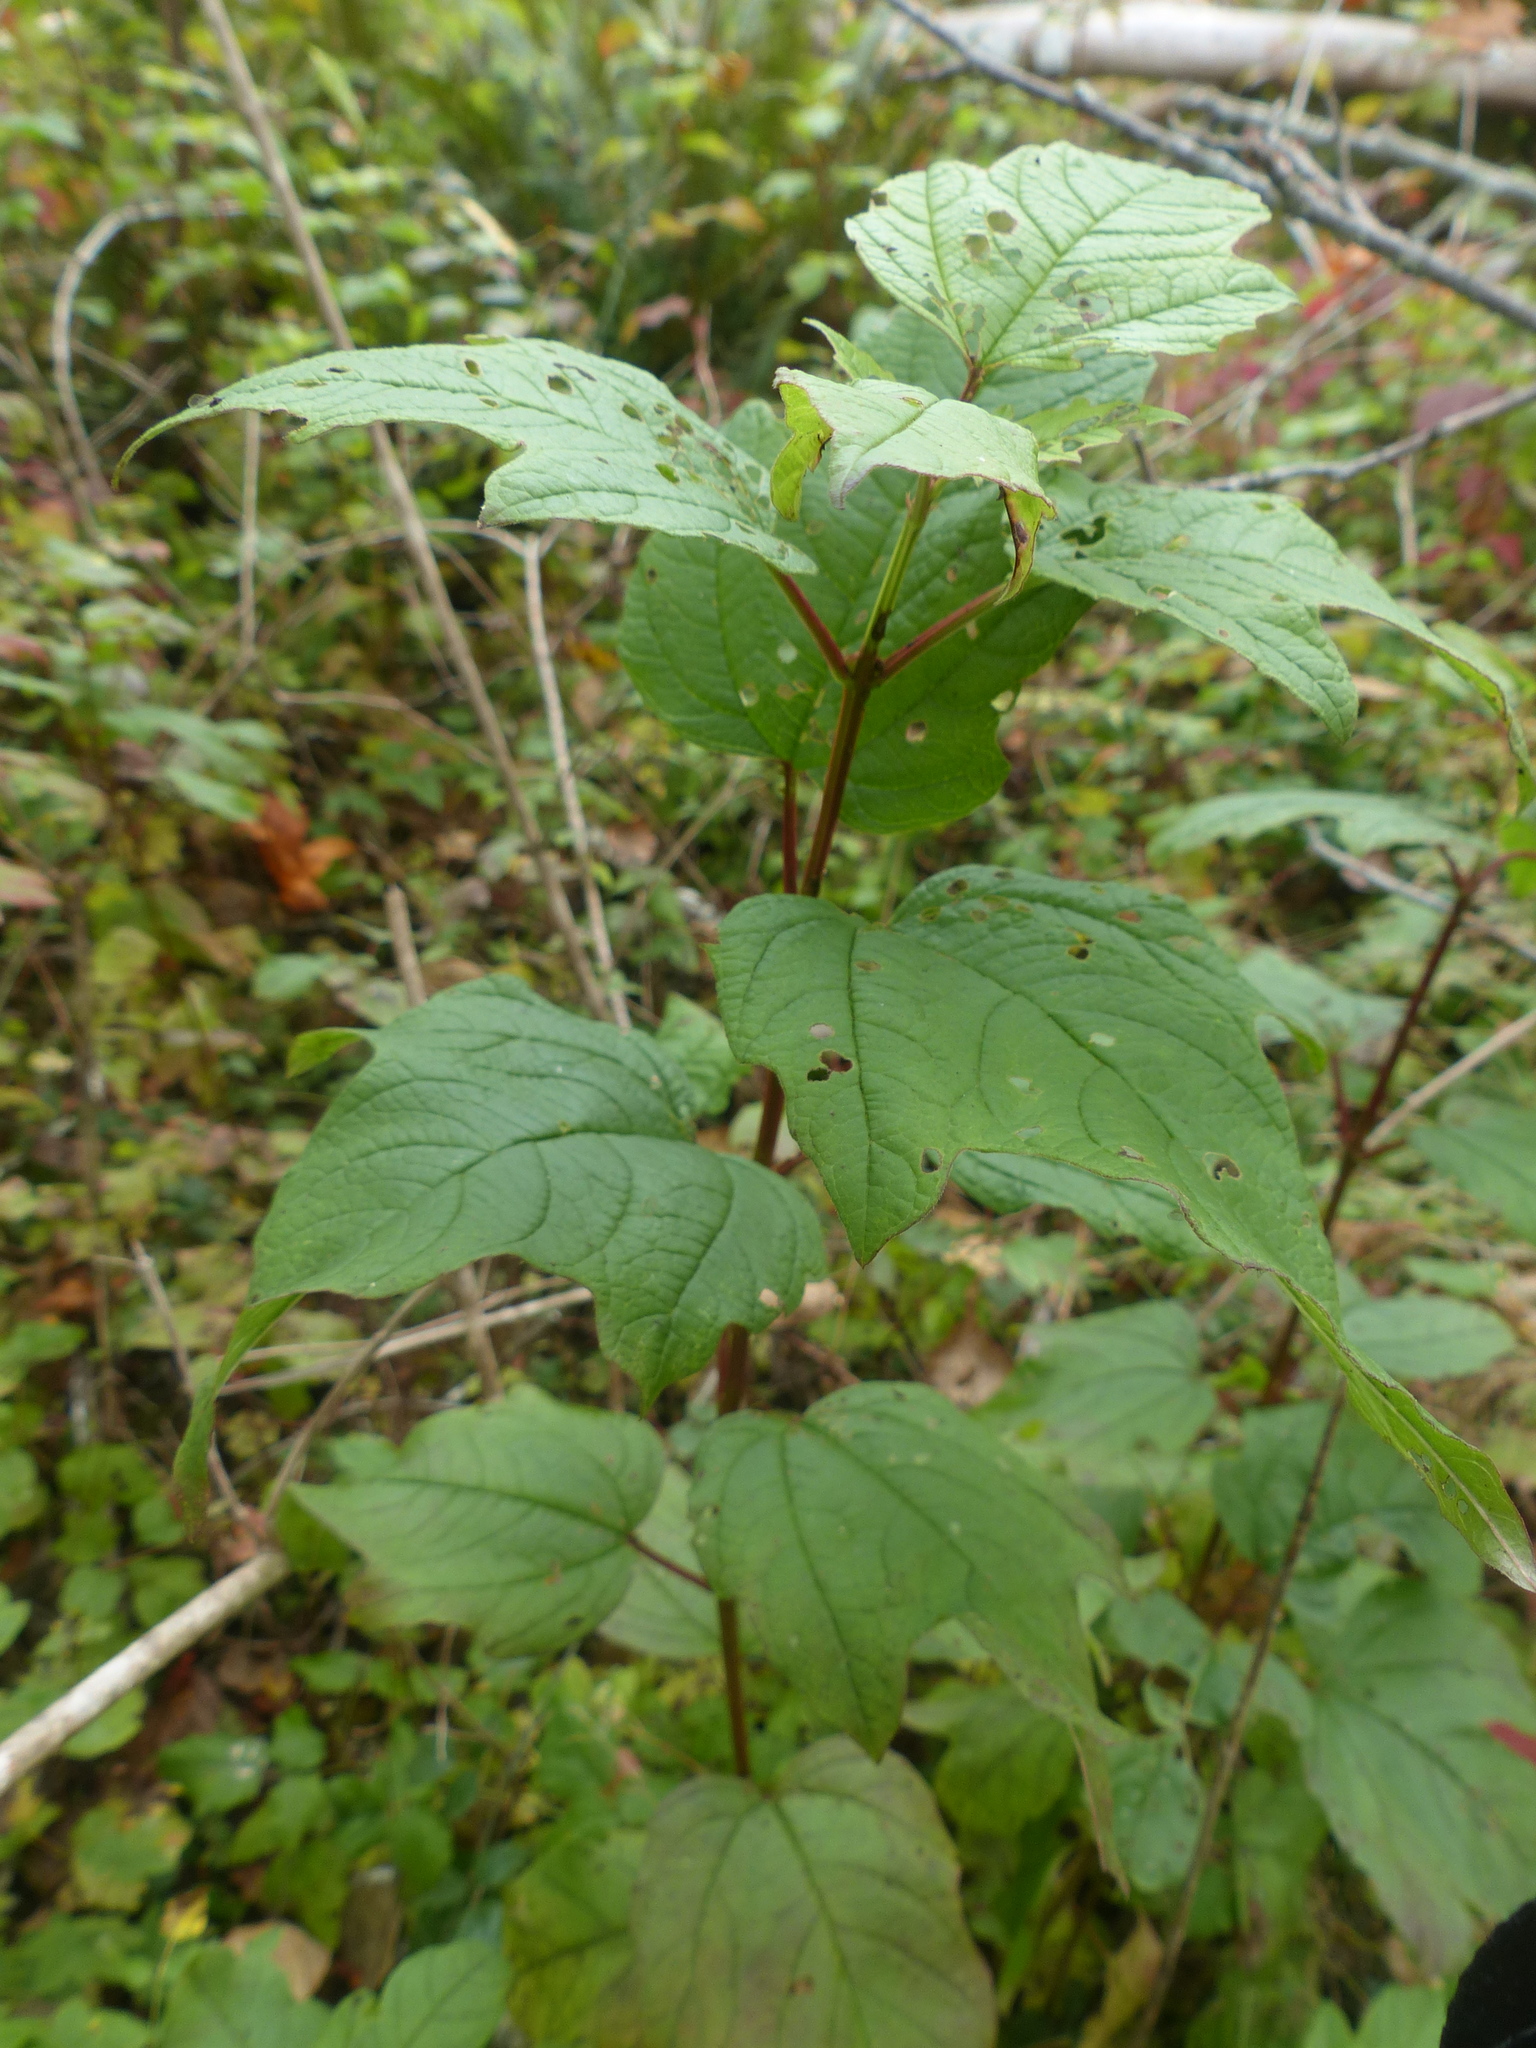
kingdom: Plantae
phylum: Tracheophyta
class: Magnoliopsida
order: Dipsacales
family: Viburnaceae
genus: Viburnum
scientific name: Viburnum edule
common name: Mooseberry
